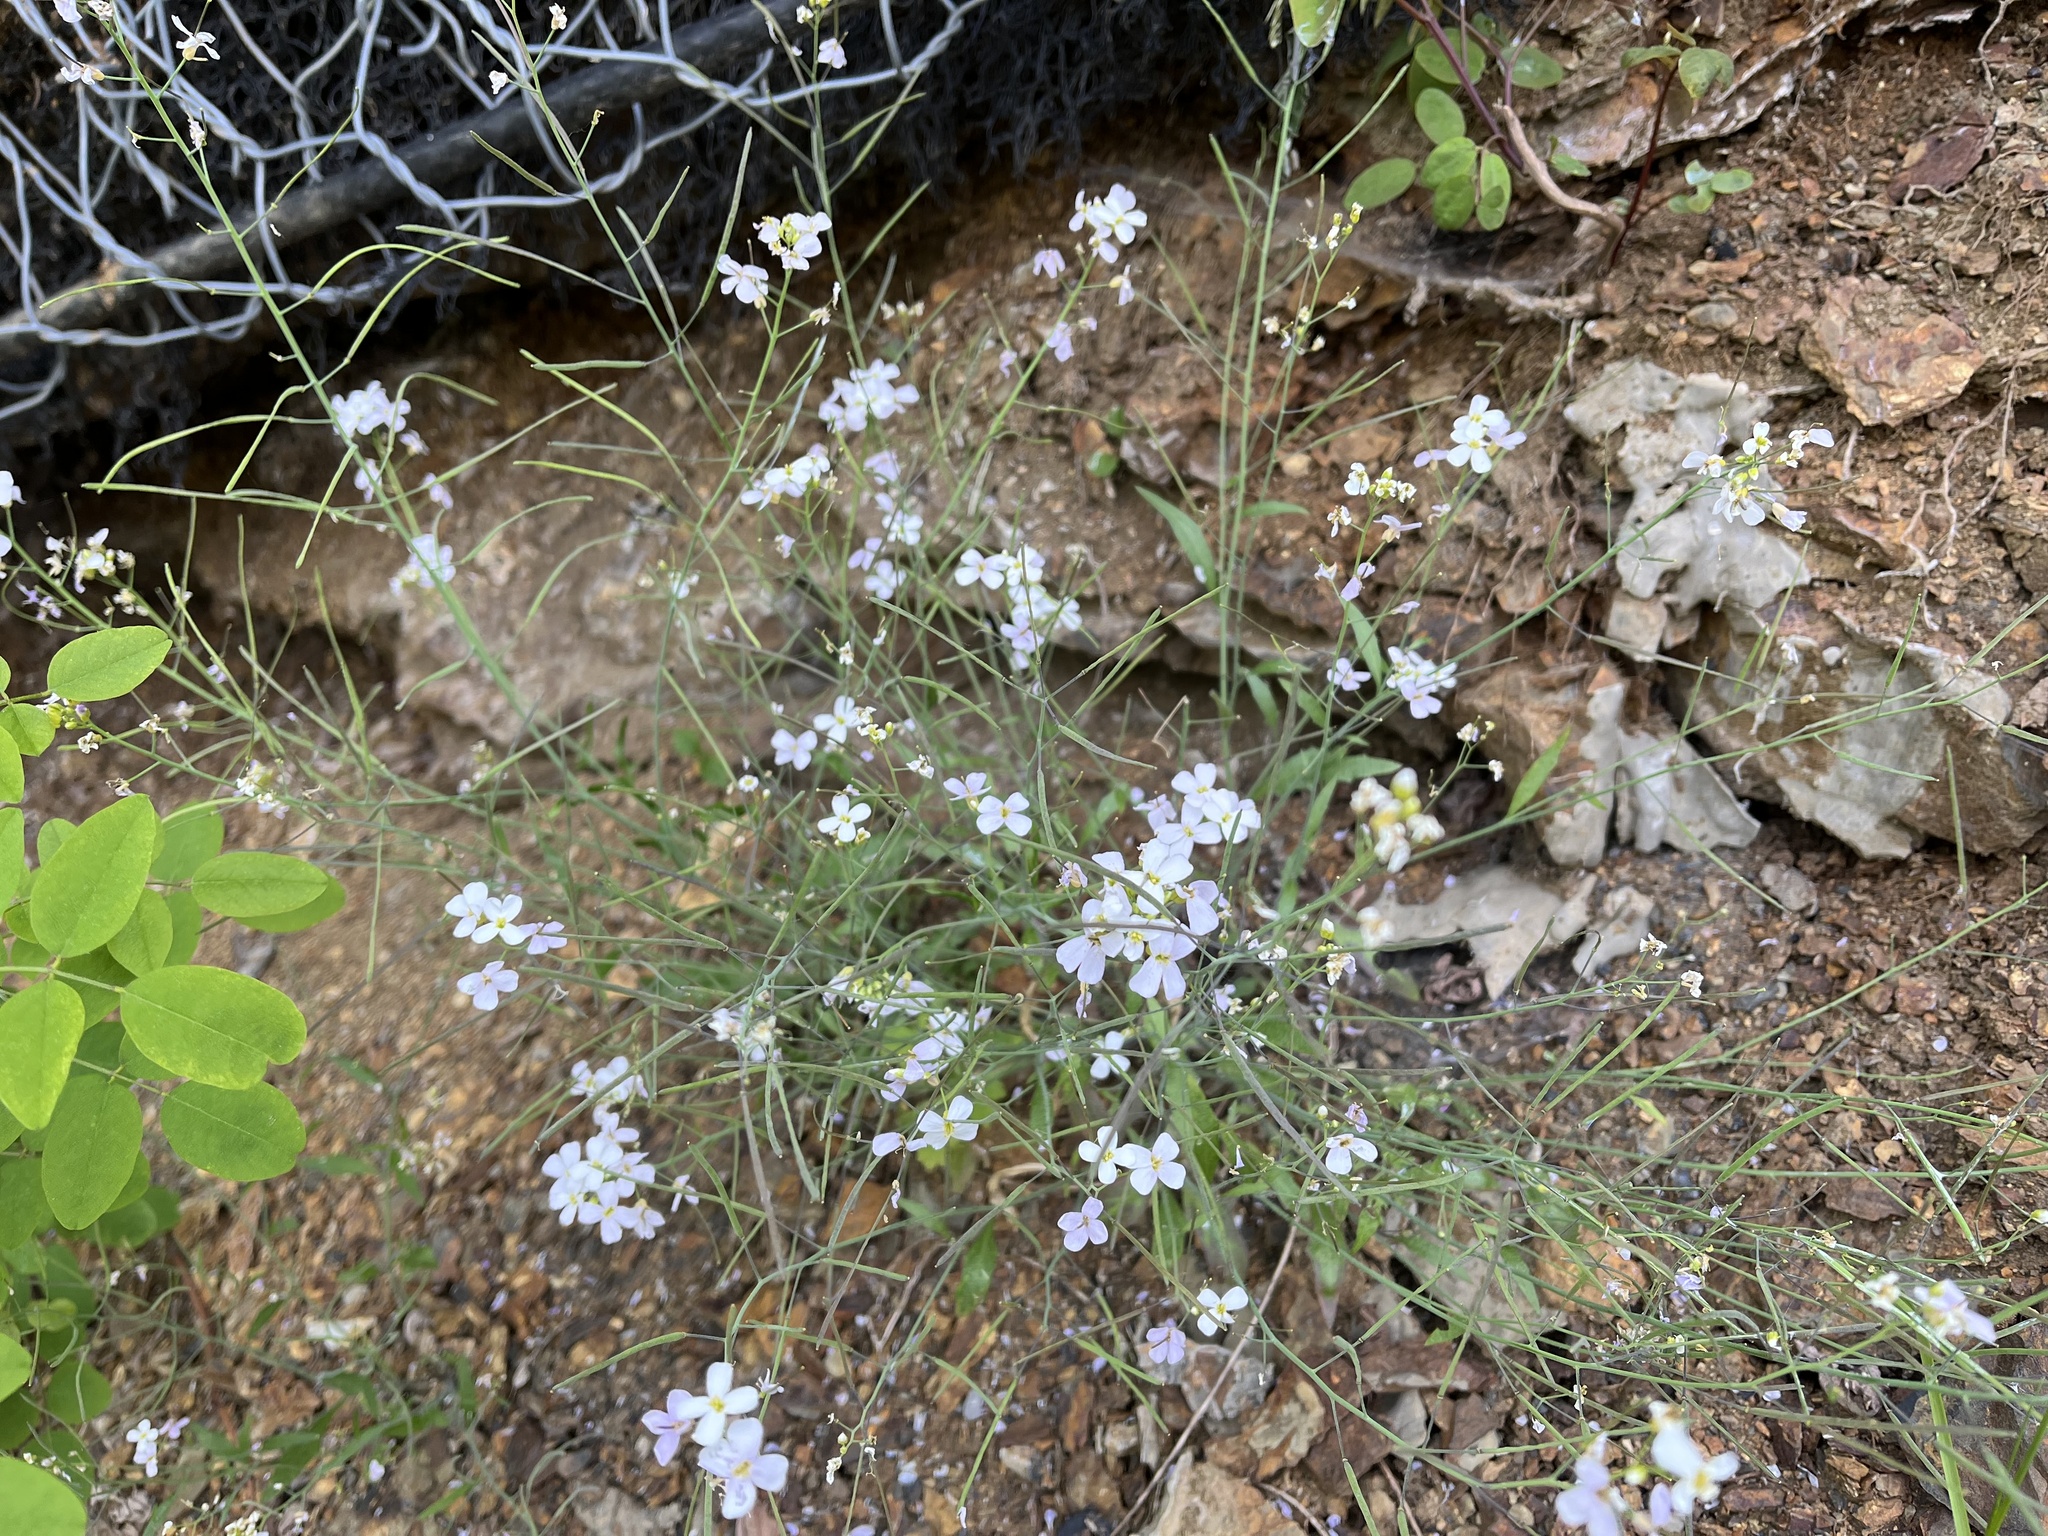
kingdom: Plantae
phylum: Tracheophyta
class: Magnoliopsida
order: Brassicales
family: Brassicaceae
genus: Arabidopsis
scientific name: Arabidopsis arenosa
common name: Sand rock-cress
